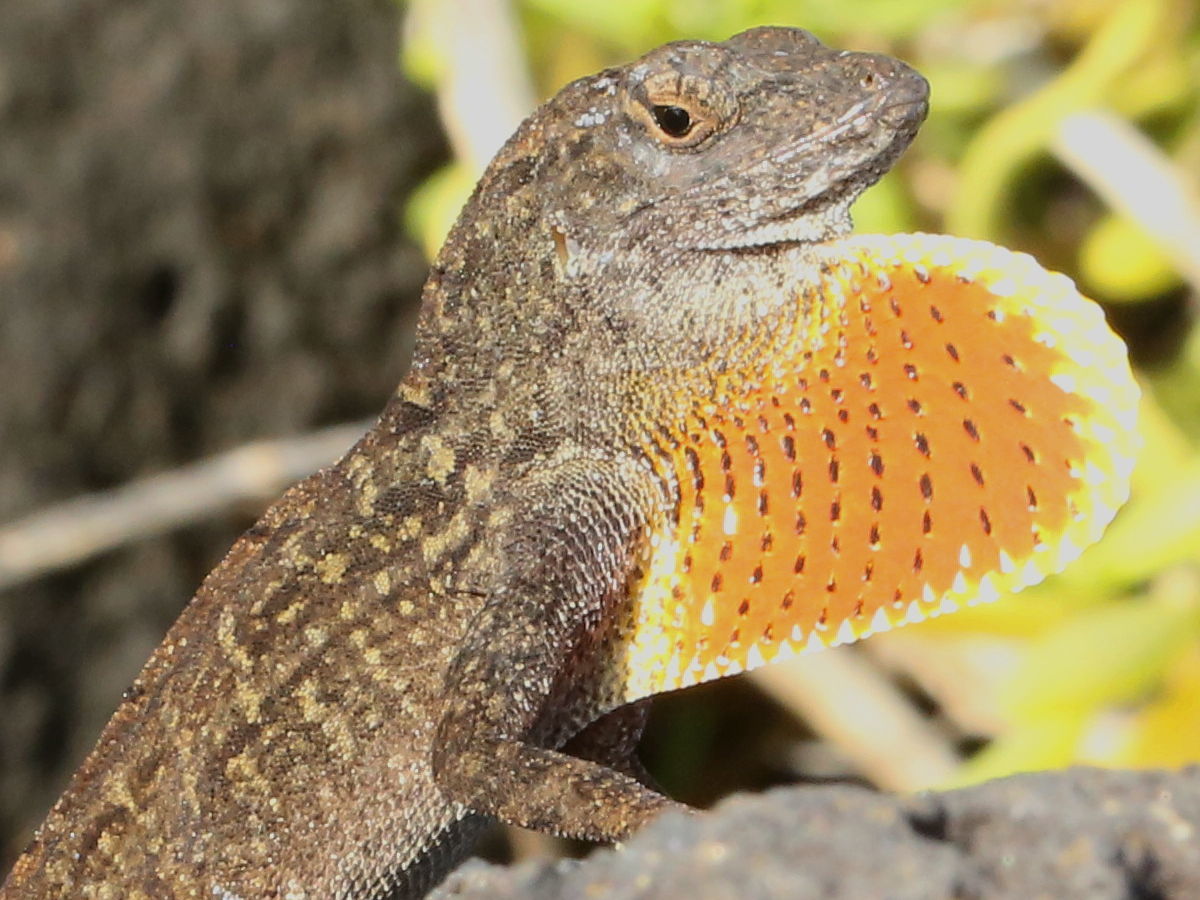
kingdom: Animalia
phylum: Chordata
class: Squamata
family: Dactyloidae
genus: Anolis
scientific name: Anolis sagrei
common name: Brown anole
